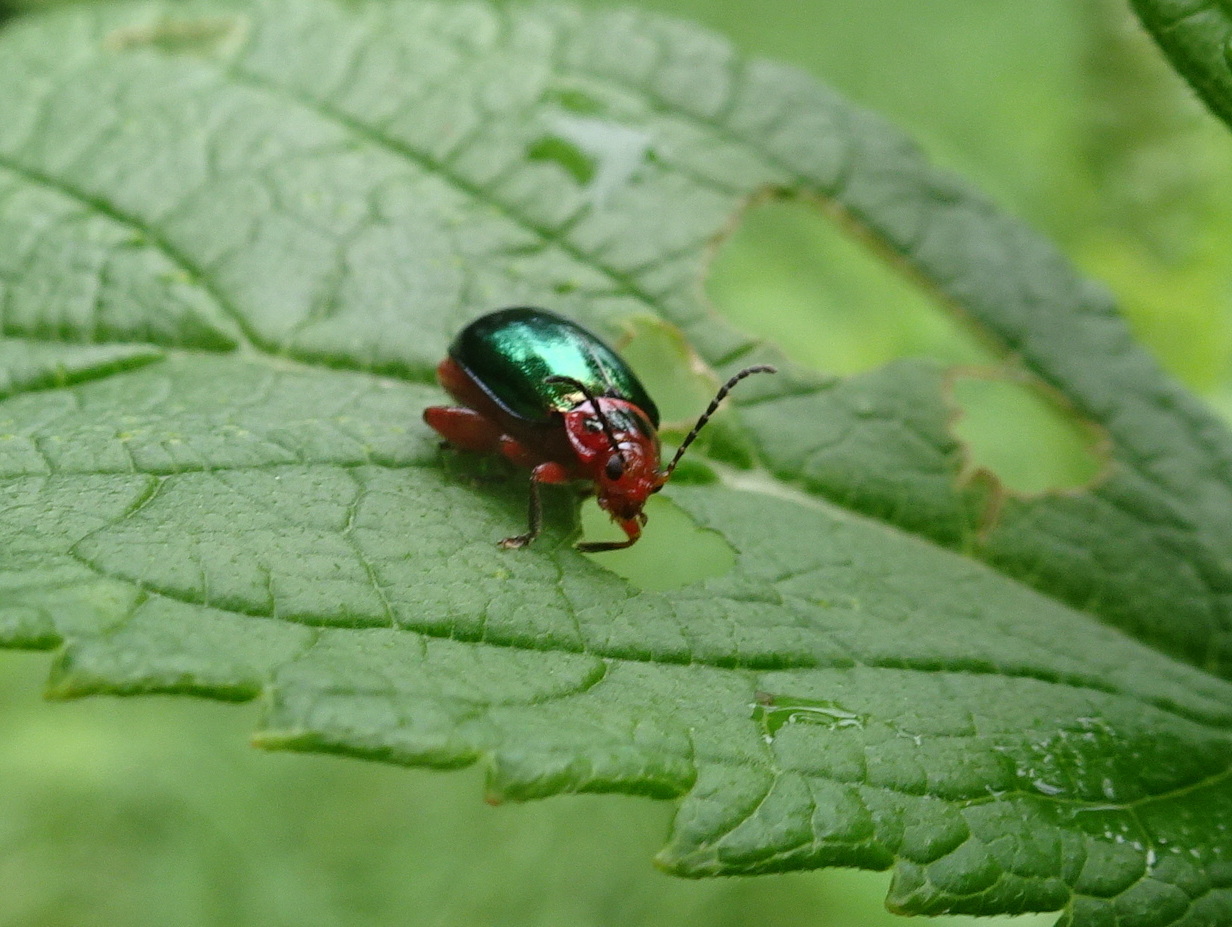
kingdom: Animalia
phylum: Arthropoda
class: Insecta
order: Coleoptera
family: Chrysomelidae
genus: Kuschelina
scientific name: Kuschelina gibbitarsa
